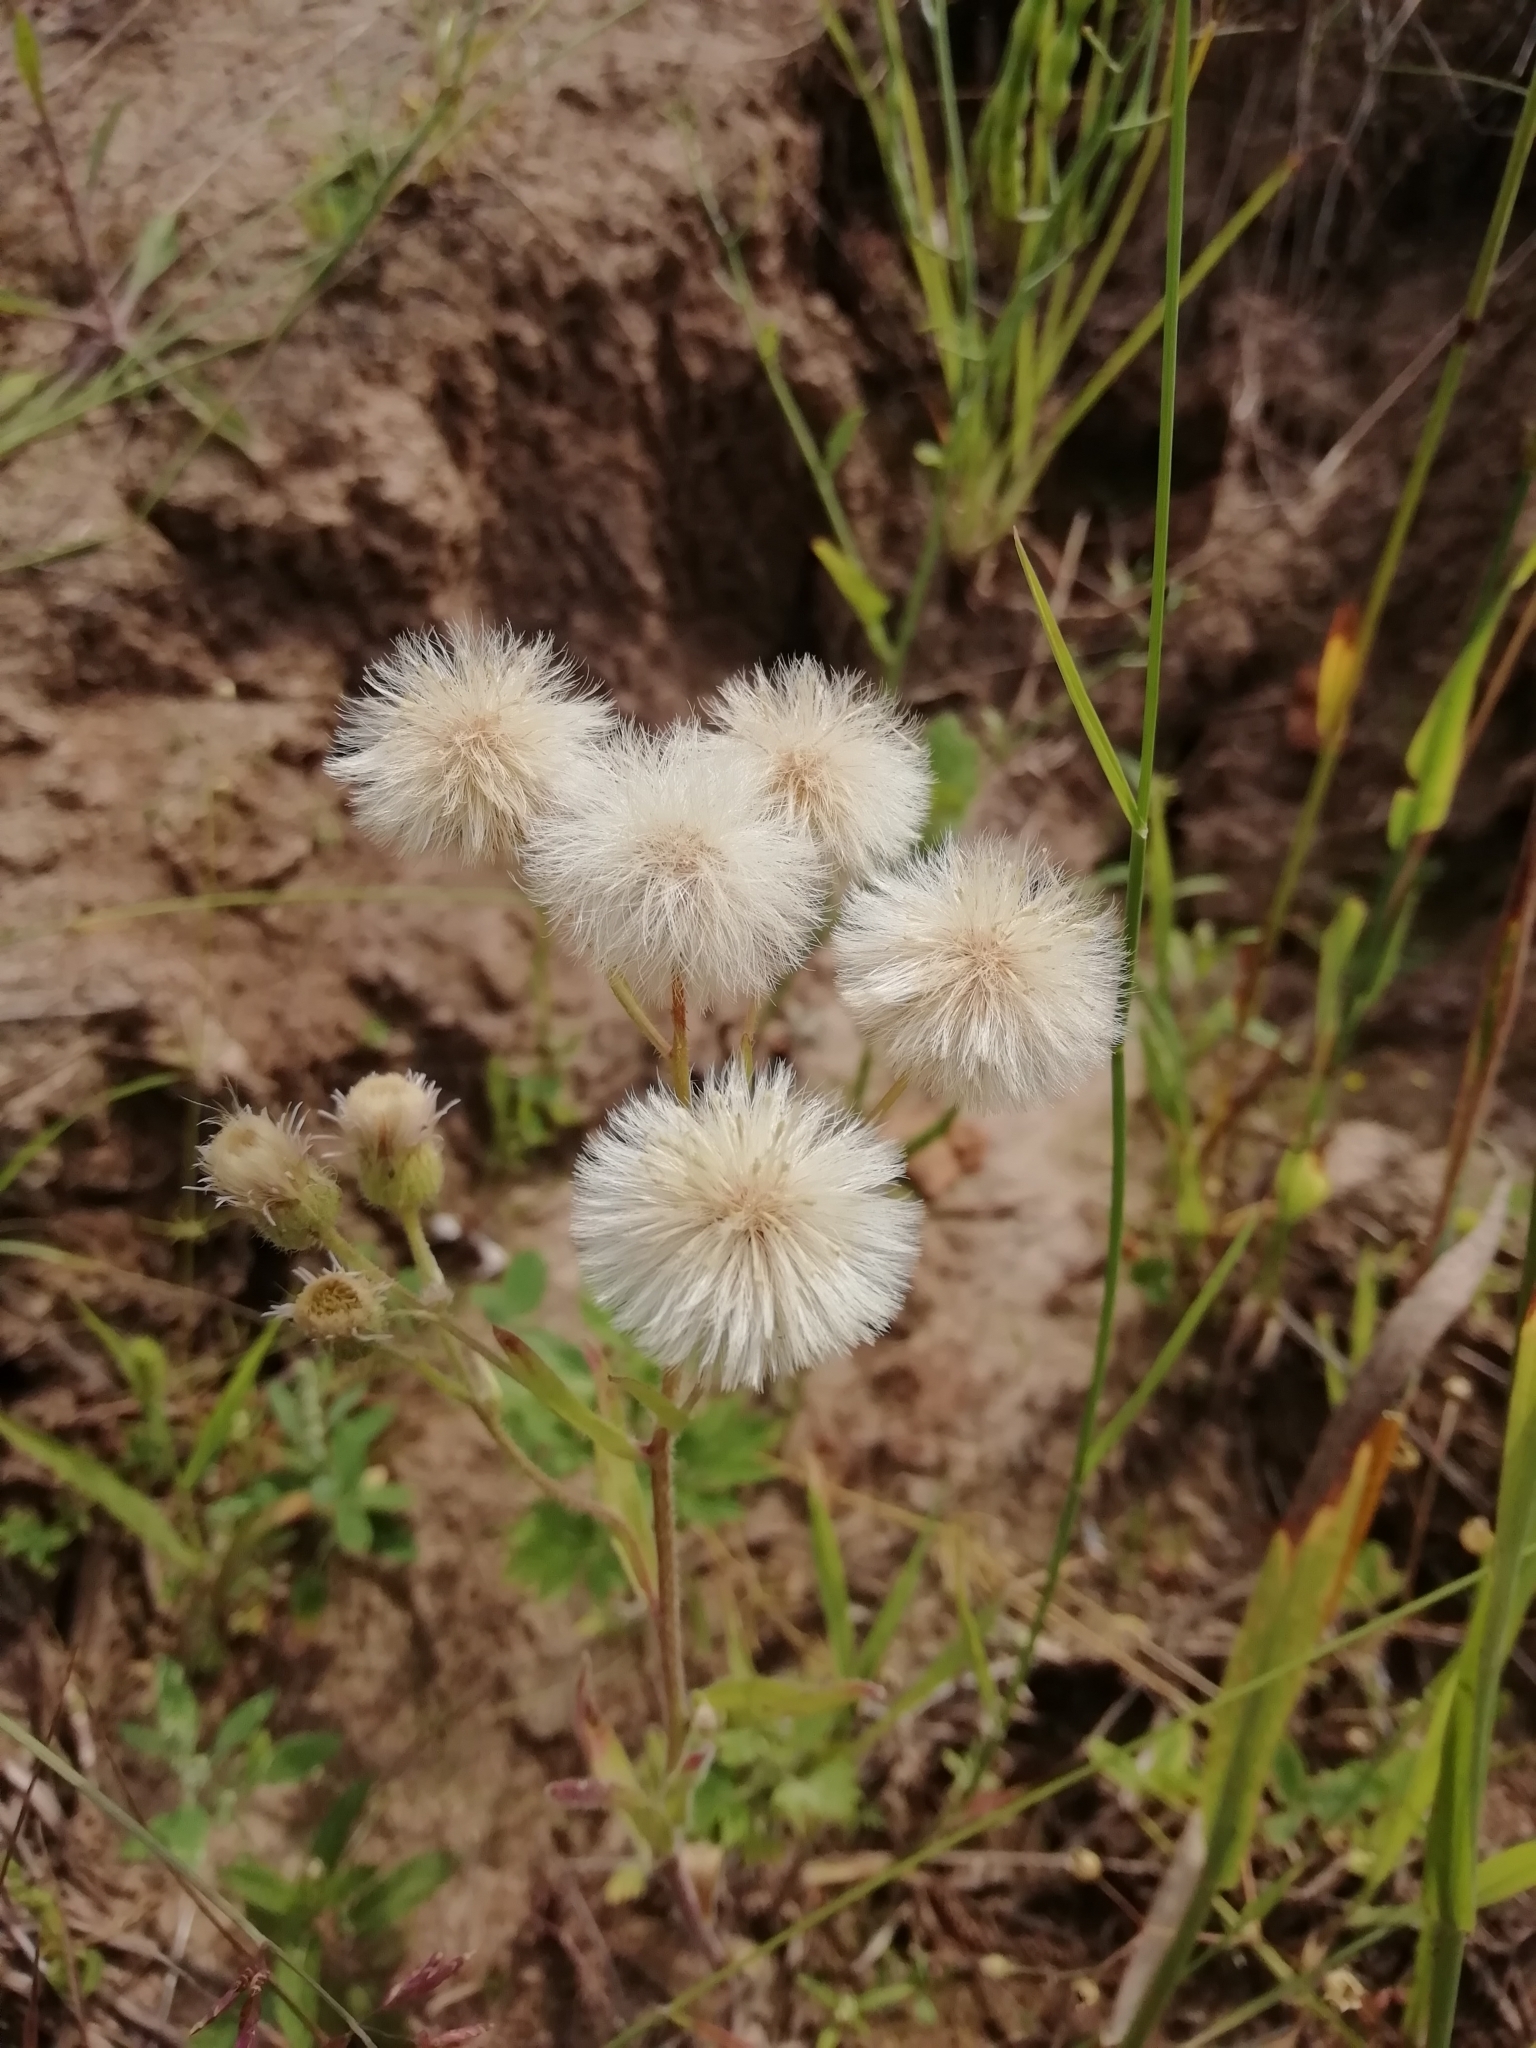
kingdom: Plantae
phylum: Tracheophyta
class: Magnoliopsida
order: Asterales
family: Asteraceae
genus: Erigeron
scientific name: Erigeron acris
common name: Blue fleabane
